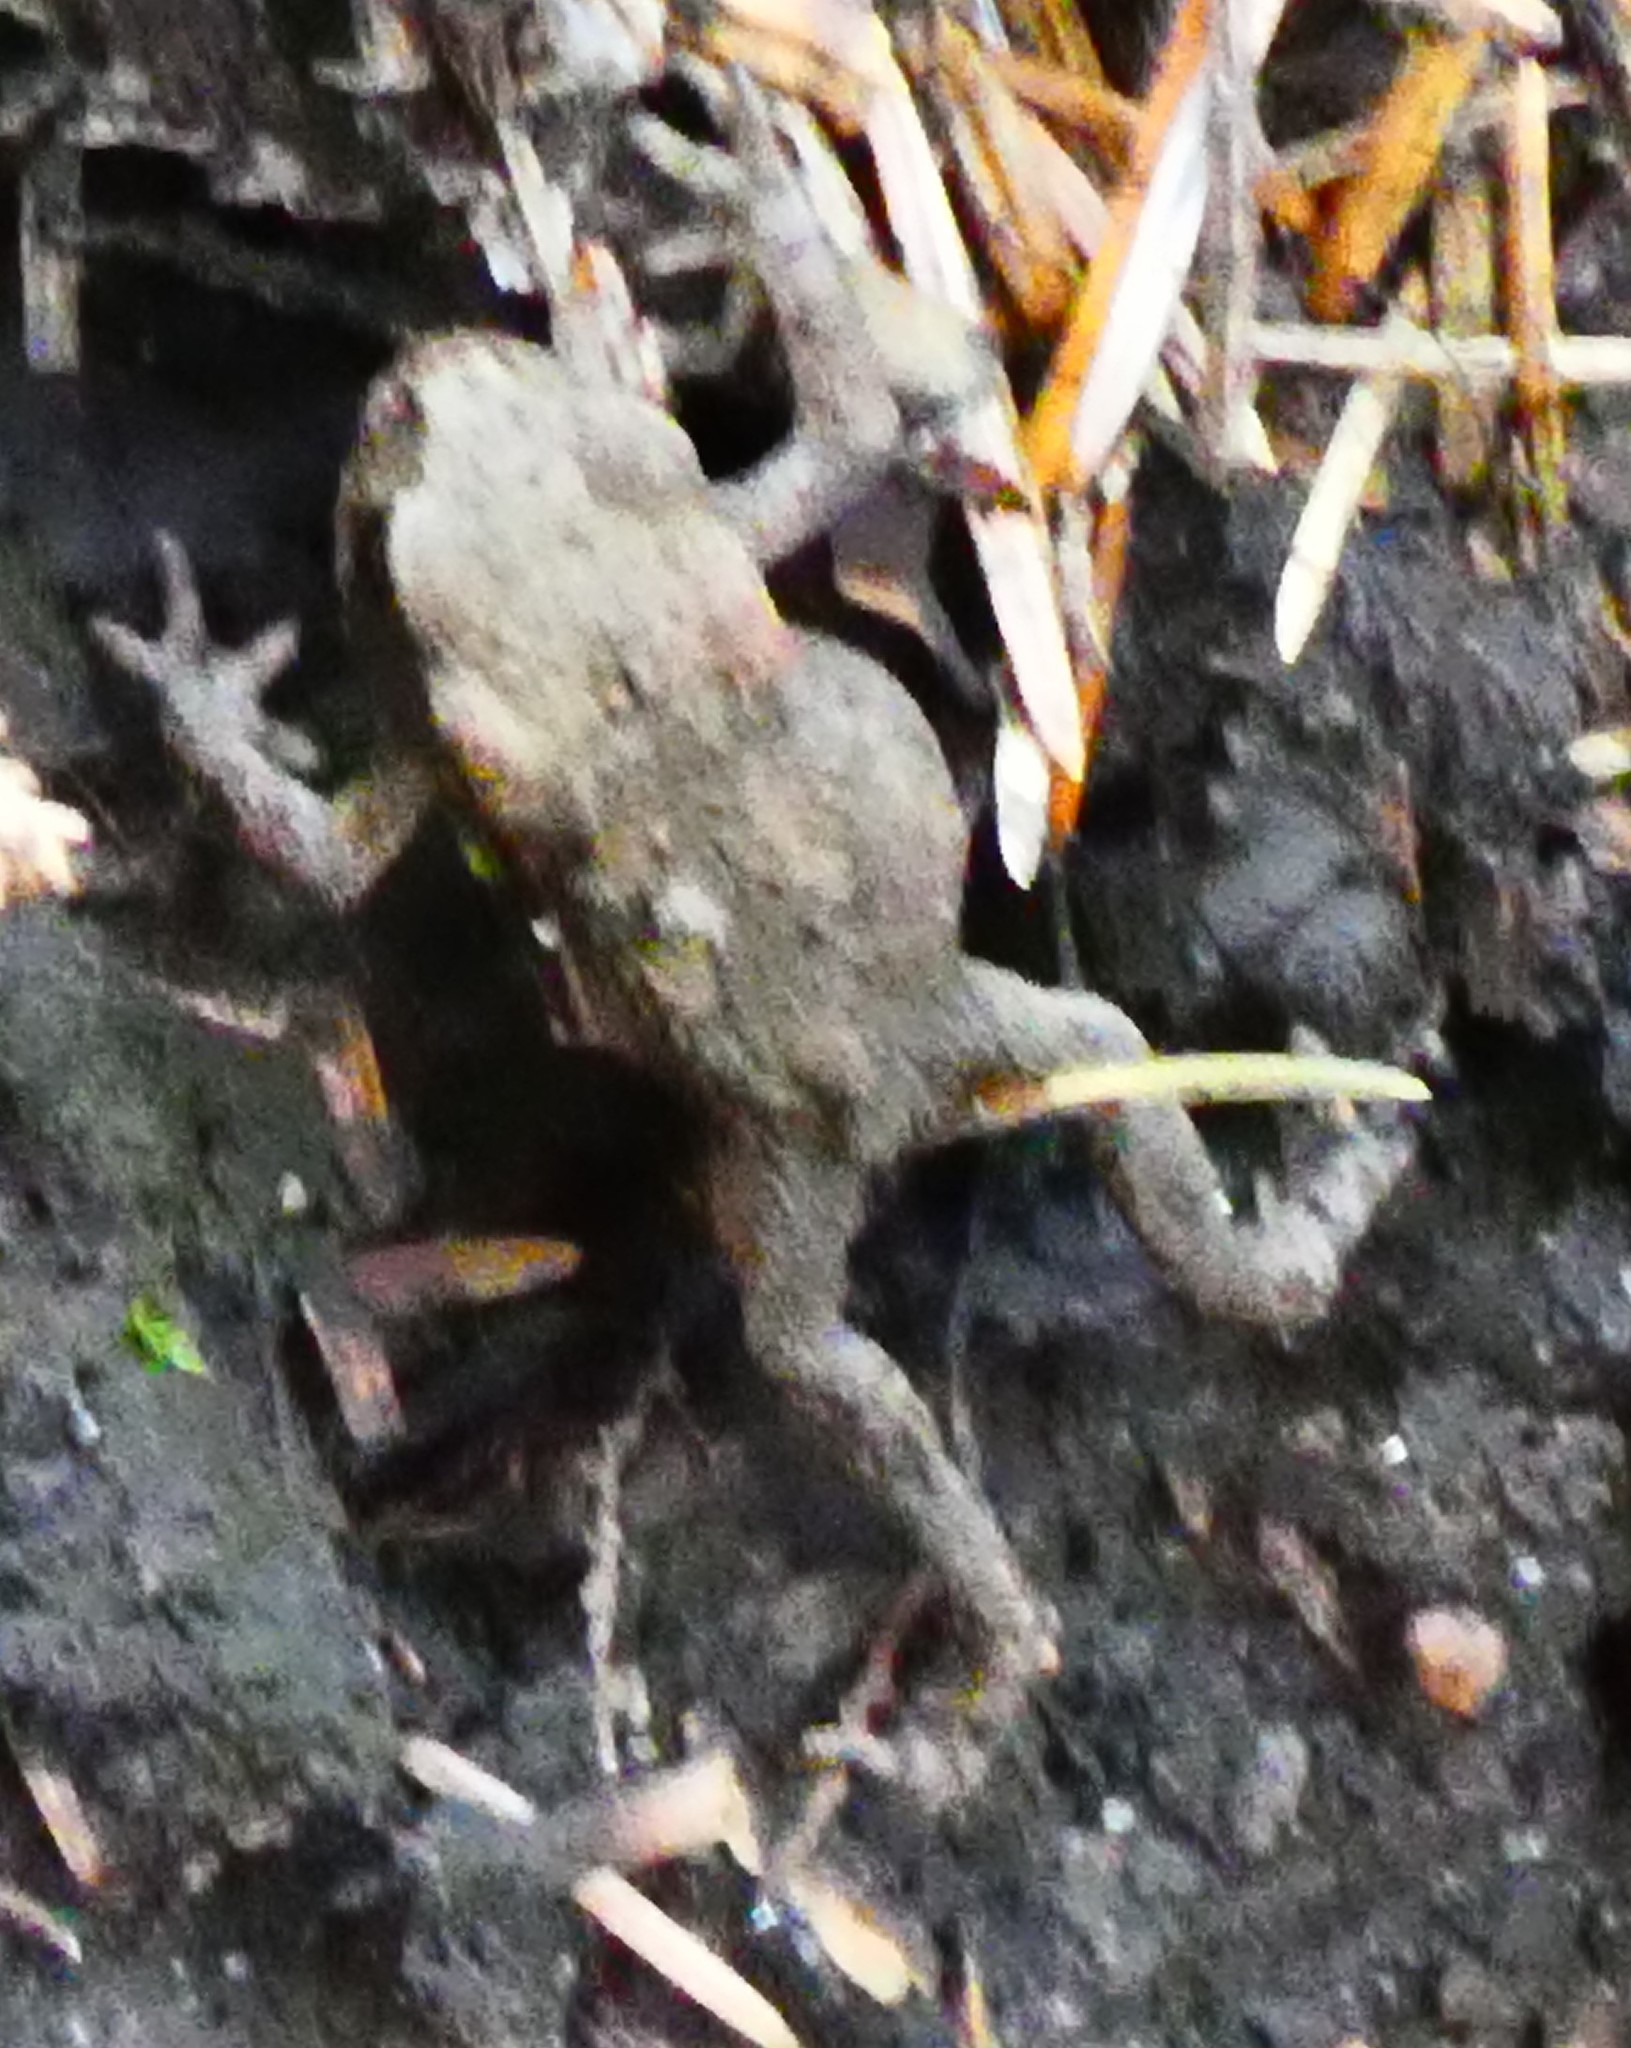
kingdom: Animalia
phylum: Chordata
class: Amphibia
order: Anura
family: Bufonidae
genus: Bufo
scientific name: Bufo bufo
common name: Common toad
